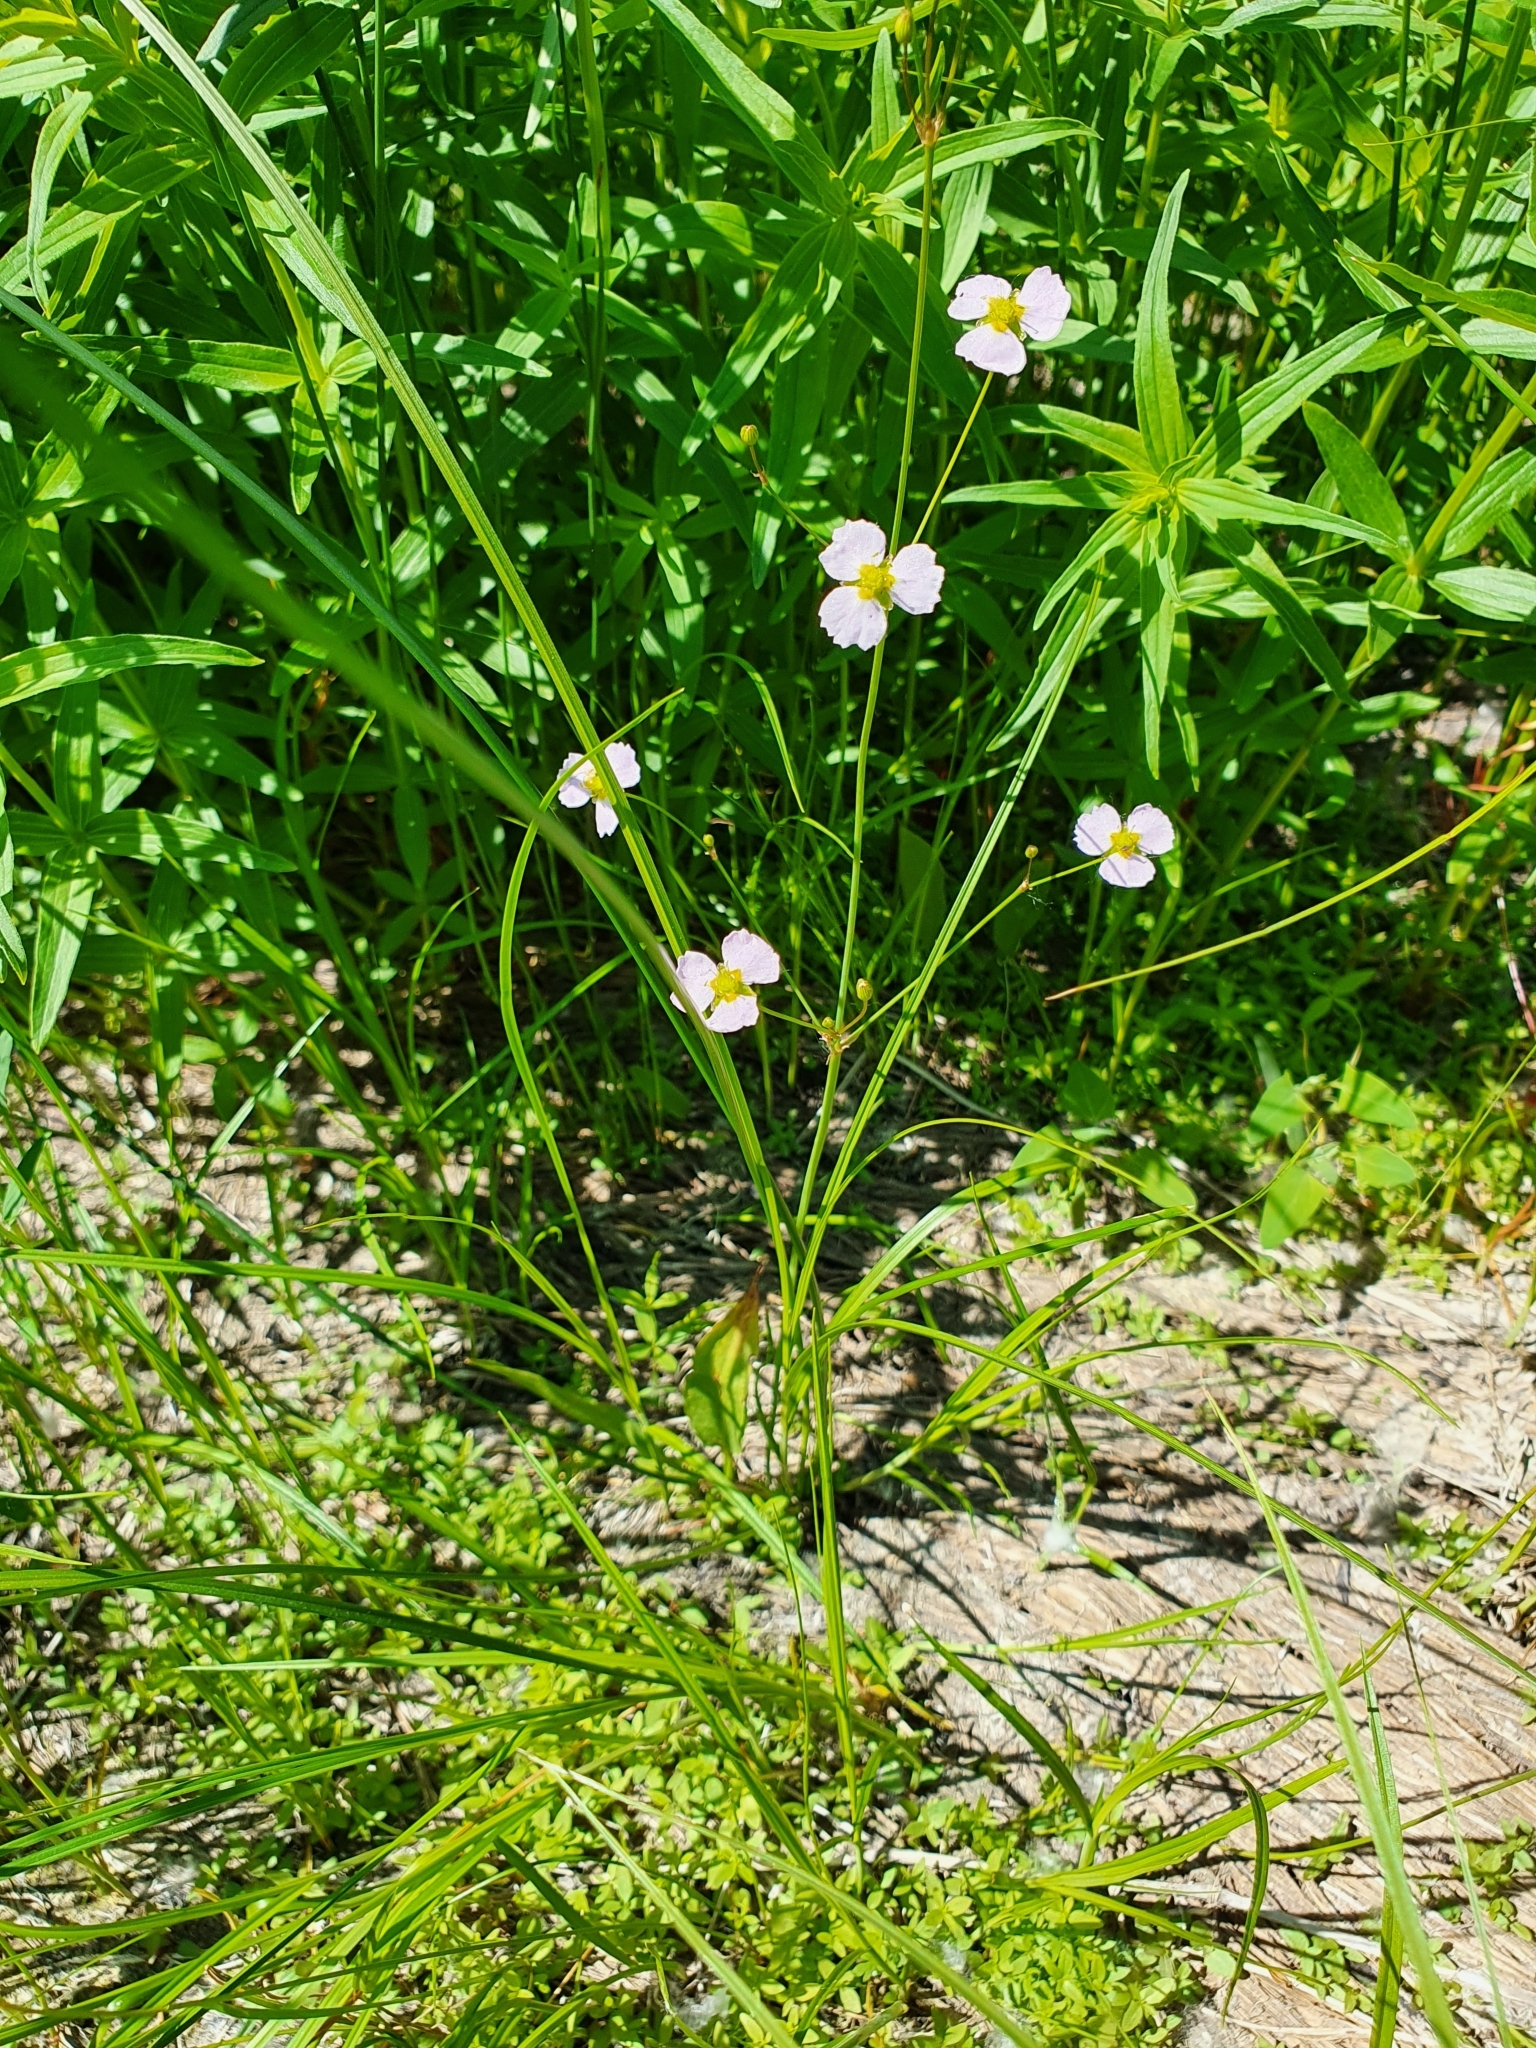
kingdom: Plantae
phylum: Tracheophyta
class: Liliopsida
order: Alismatales
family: Alismataceae
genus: Alisma
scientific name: Alisma lanceolatum
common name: Narrow-leaved water-plantain
